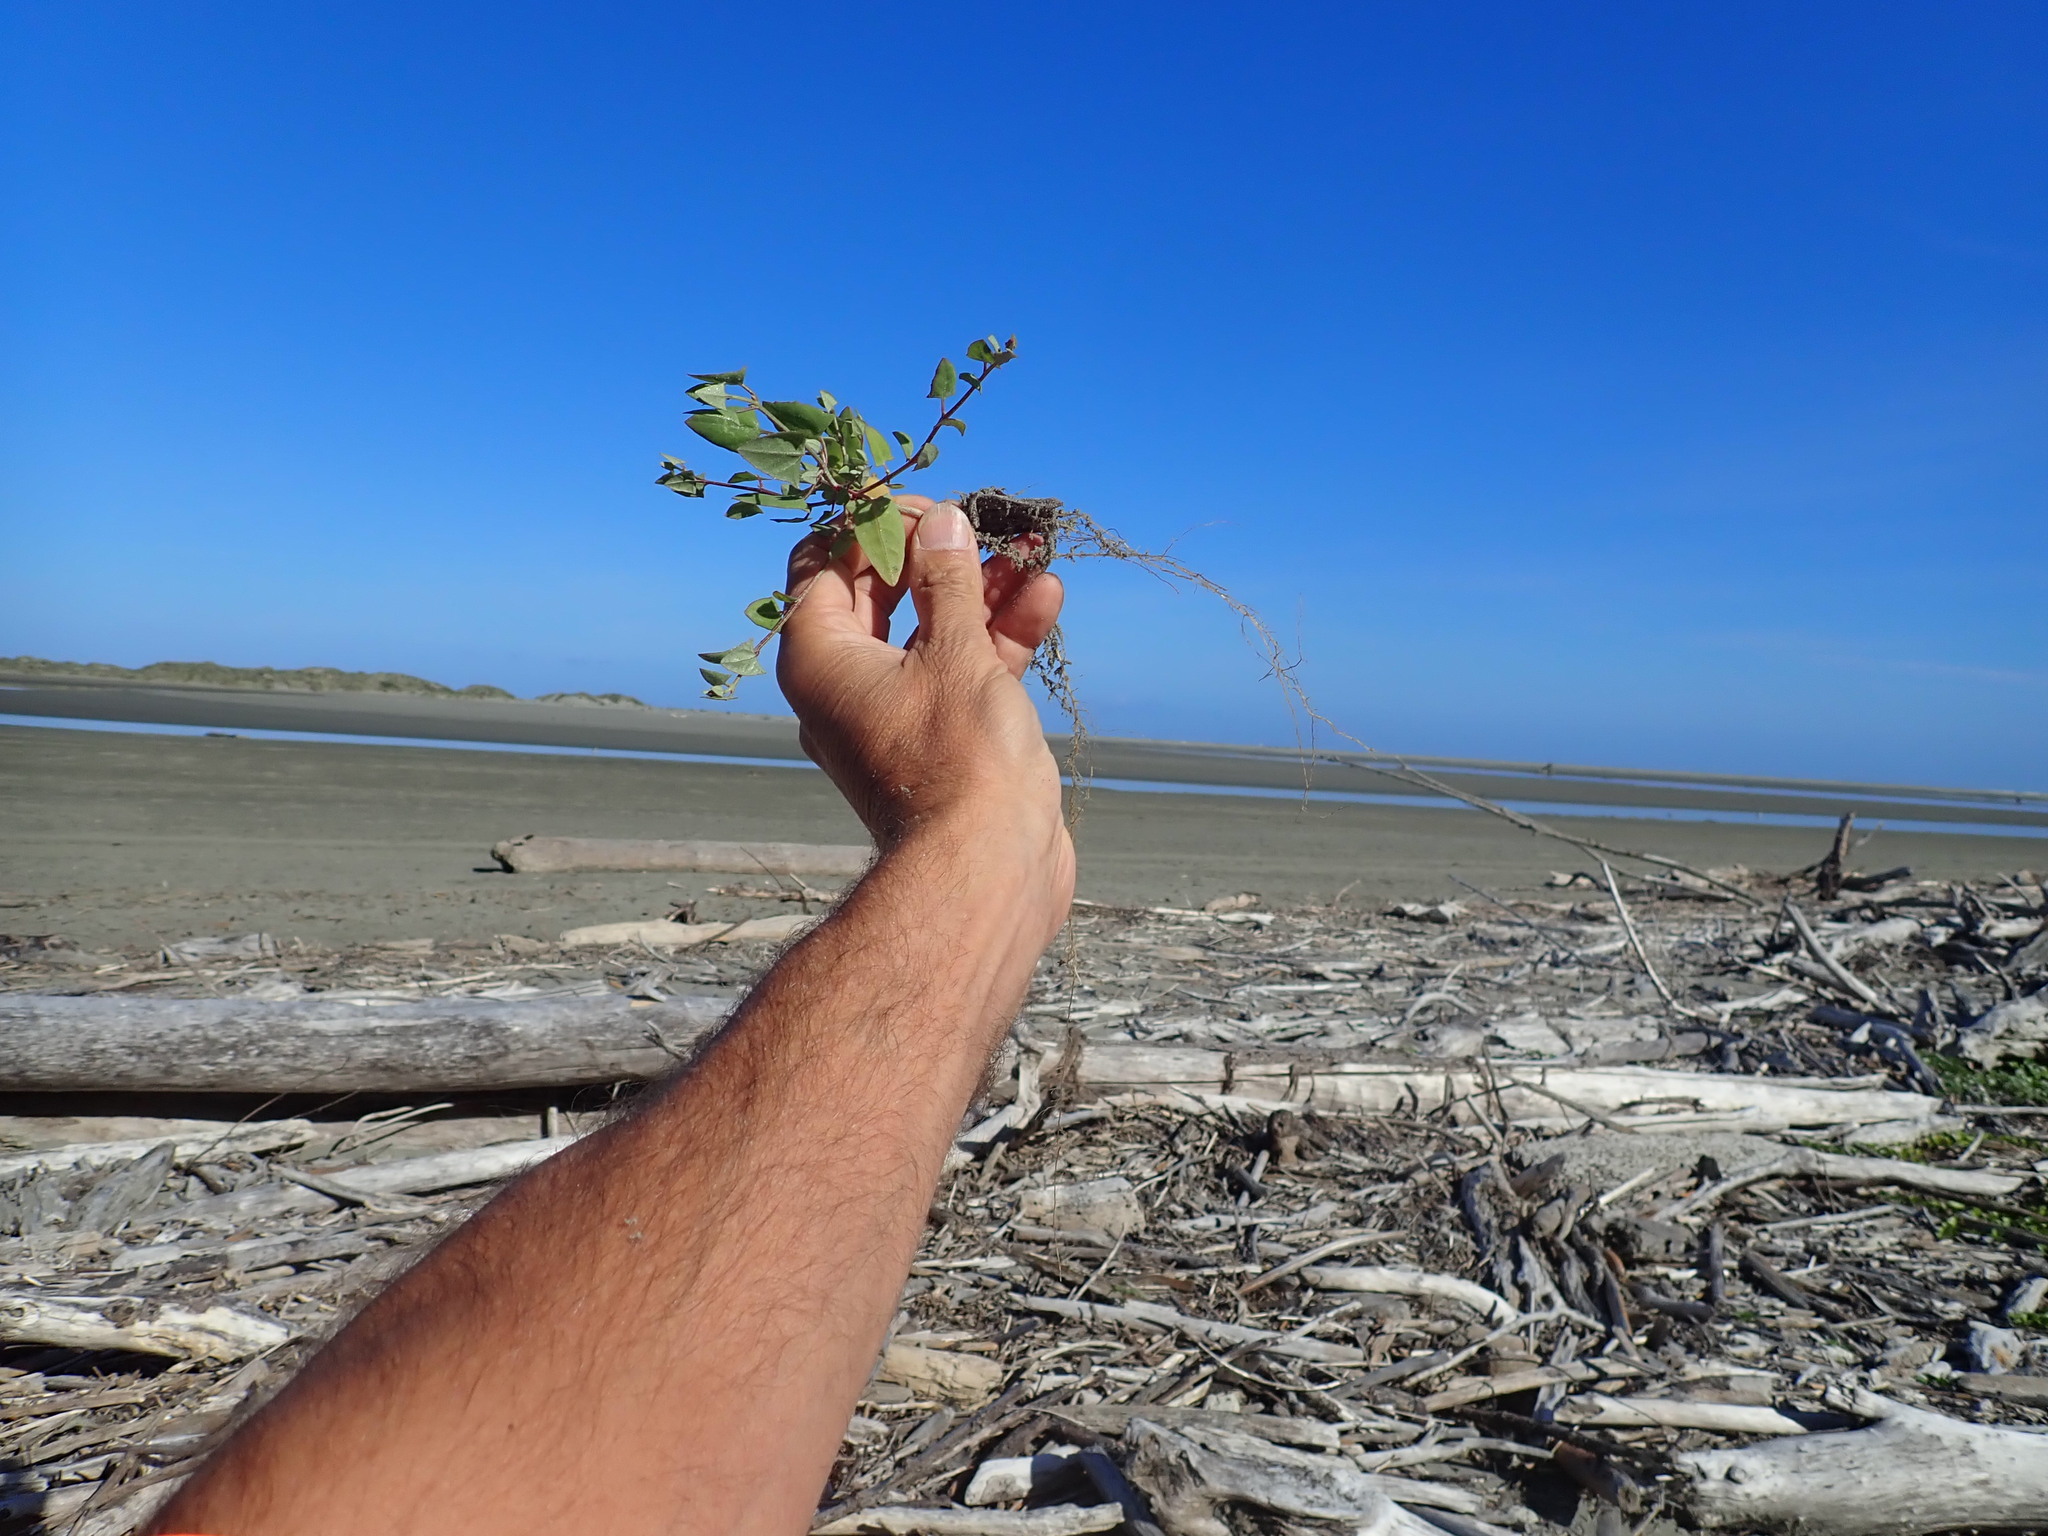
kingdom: Plantae
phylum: Tracheophyta
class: Magnoliopsida
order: Caryophyllales
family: Amaranthaceae
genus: Atriplex
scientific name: Atriplex prostrata
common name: Spear-leaved orache
